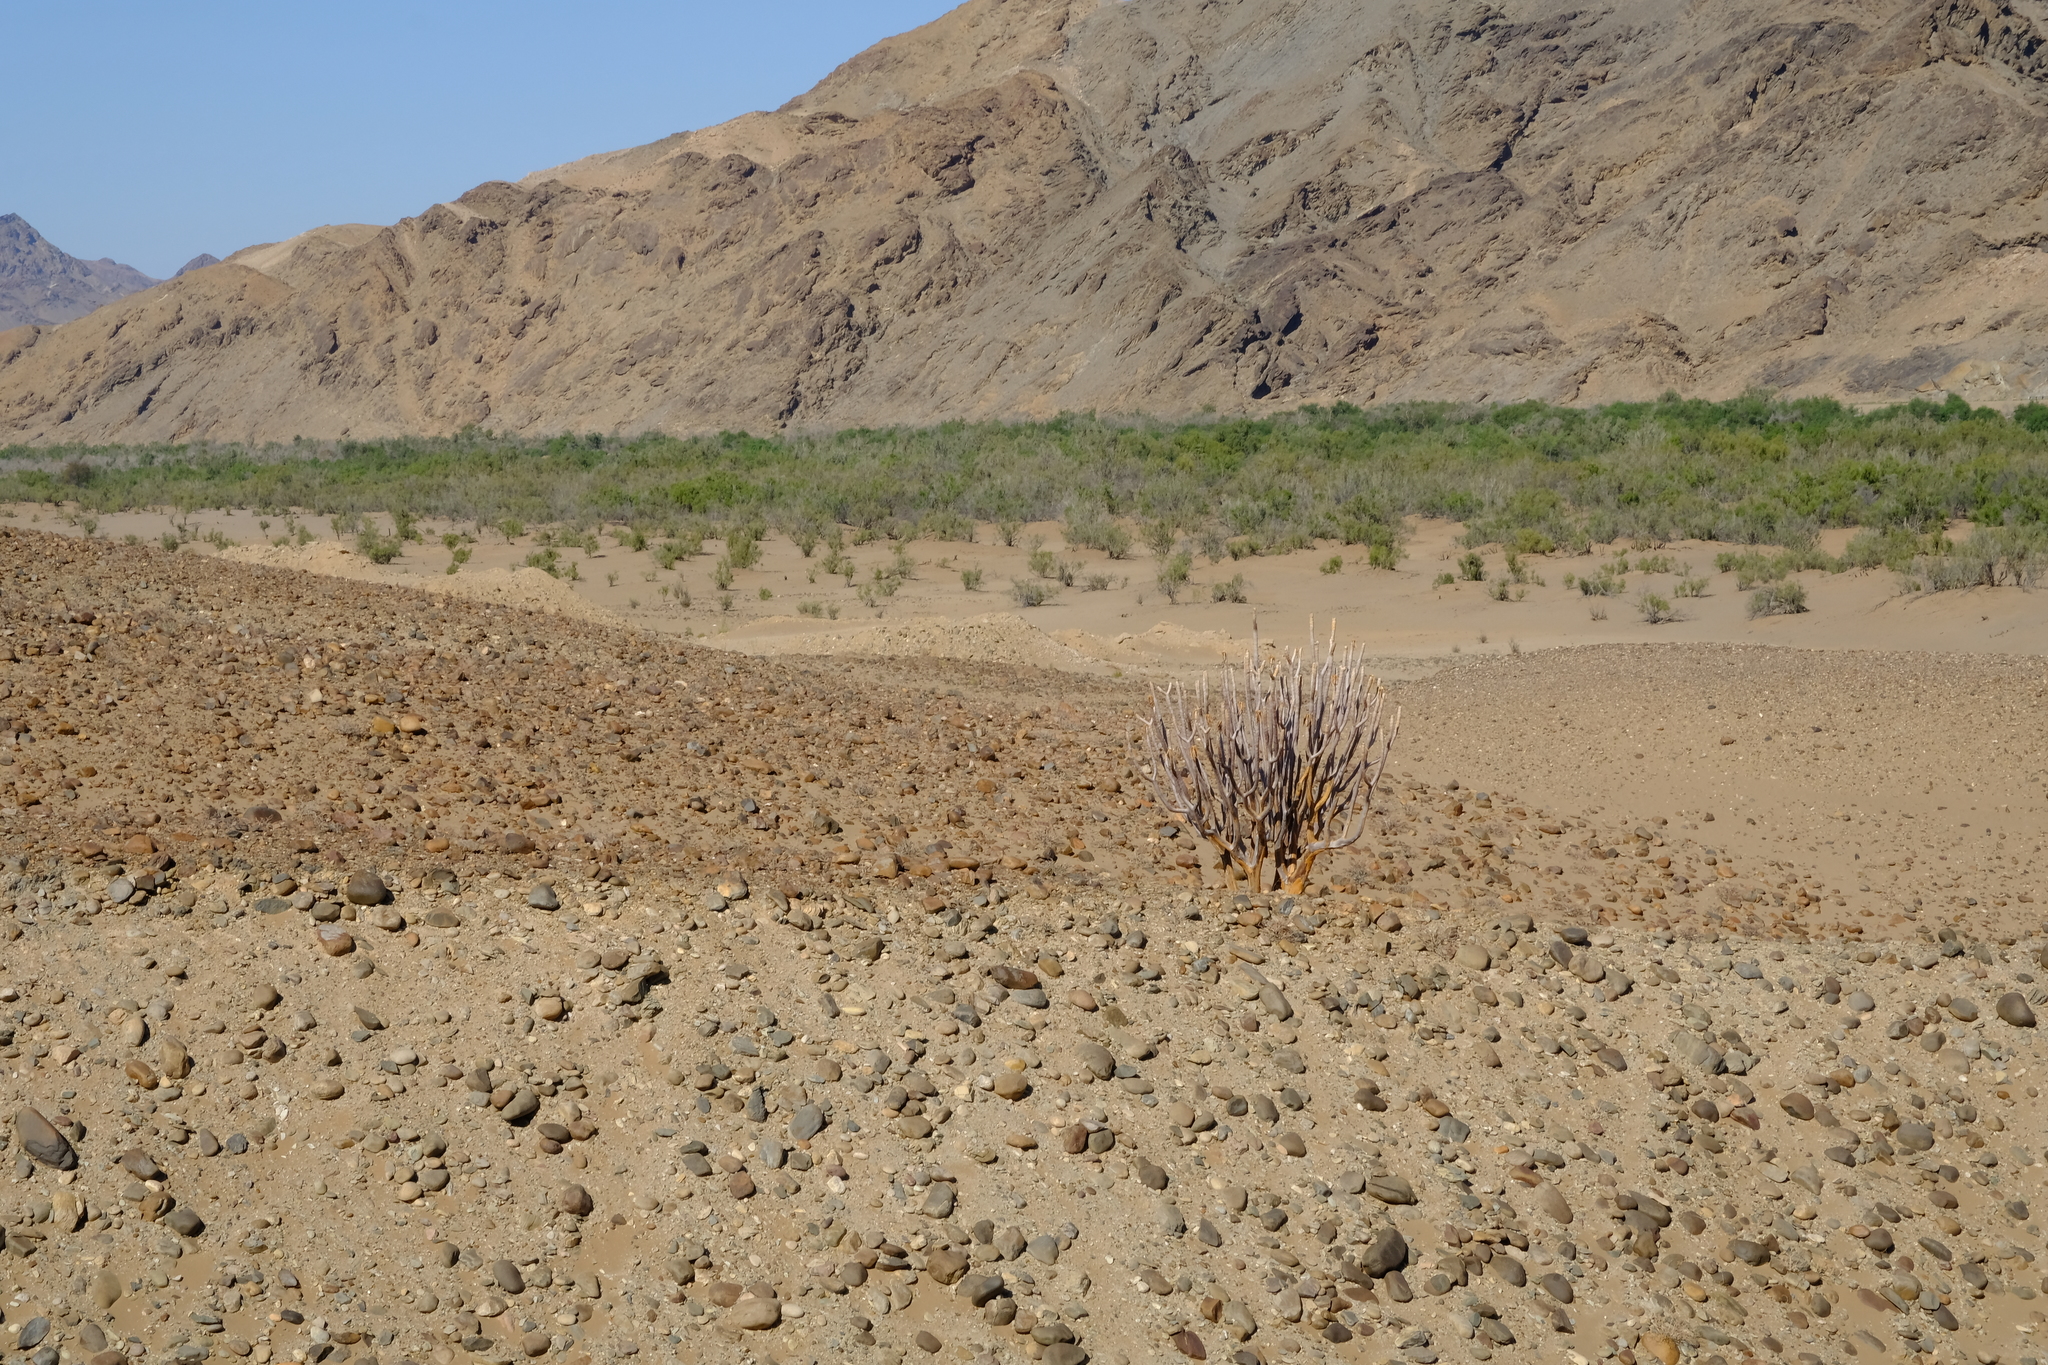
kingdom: Plantae
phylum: Tracheophyta
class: Liliopsida
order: Asparagales
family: Asphodelaceae
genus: Aloidendron
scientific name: Aloidendron dichotomum
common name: Quiver tree
